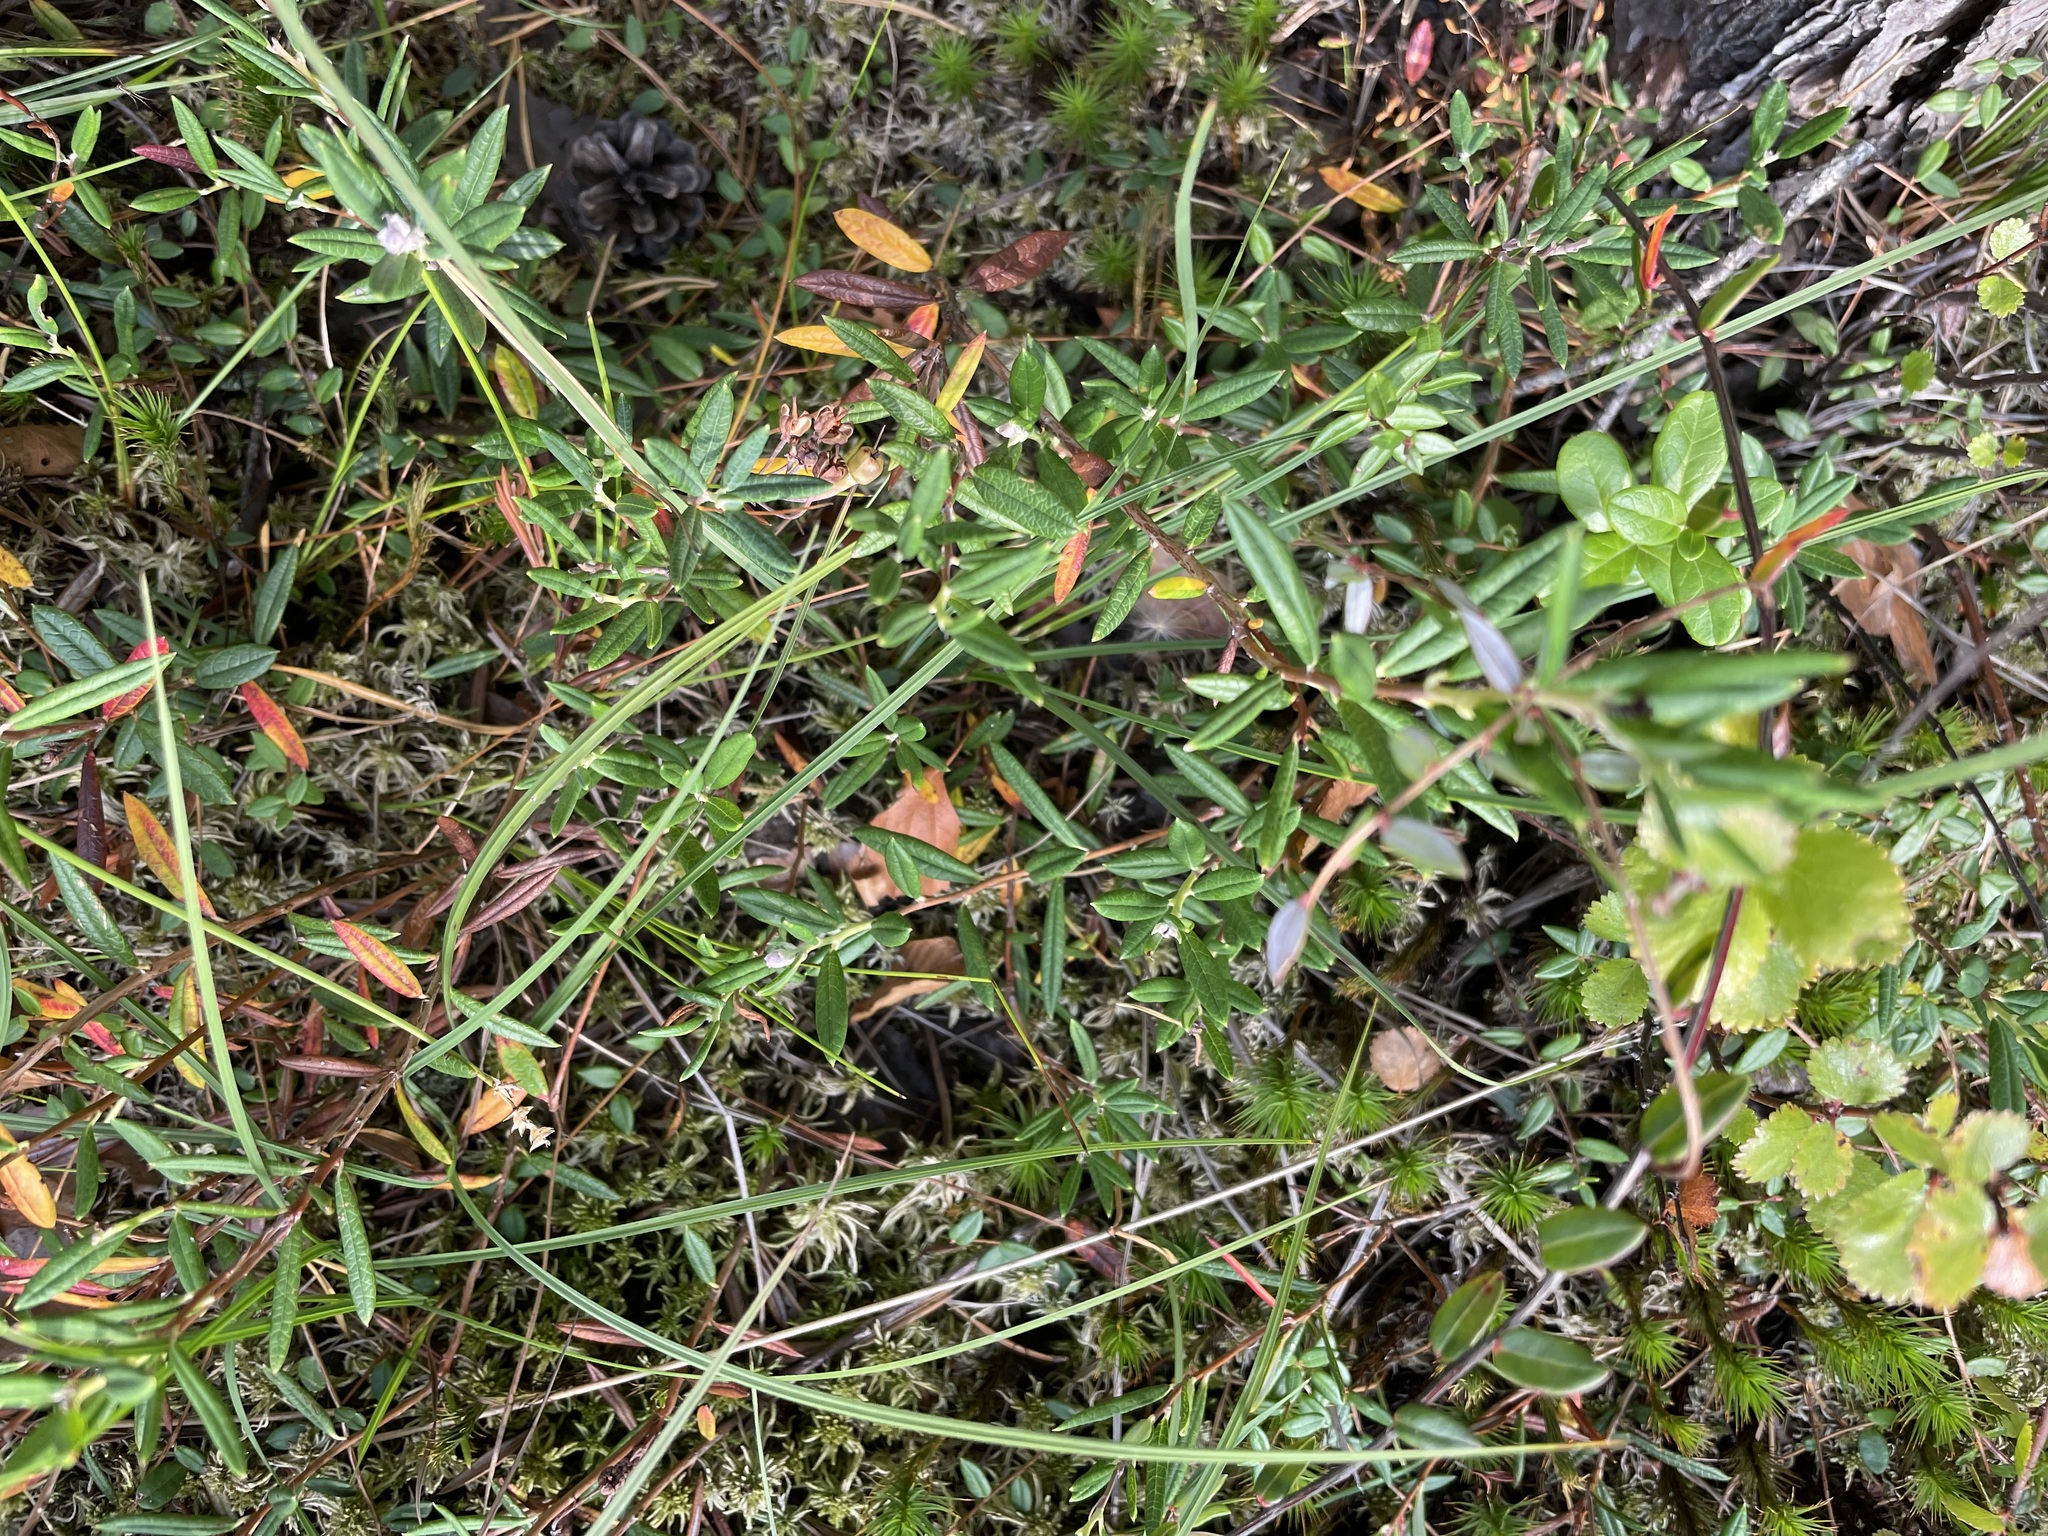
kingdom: Plantae
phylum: Tracheophyta
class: Magnoliopsida
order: Ericales
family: Ericaceae
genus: Andromeda
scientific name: Andromeda polifolia
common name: Bog-rosemary
